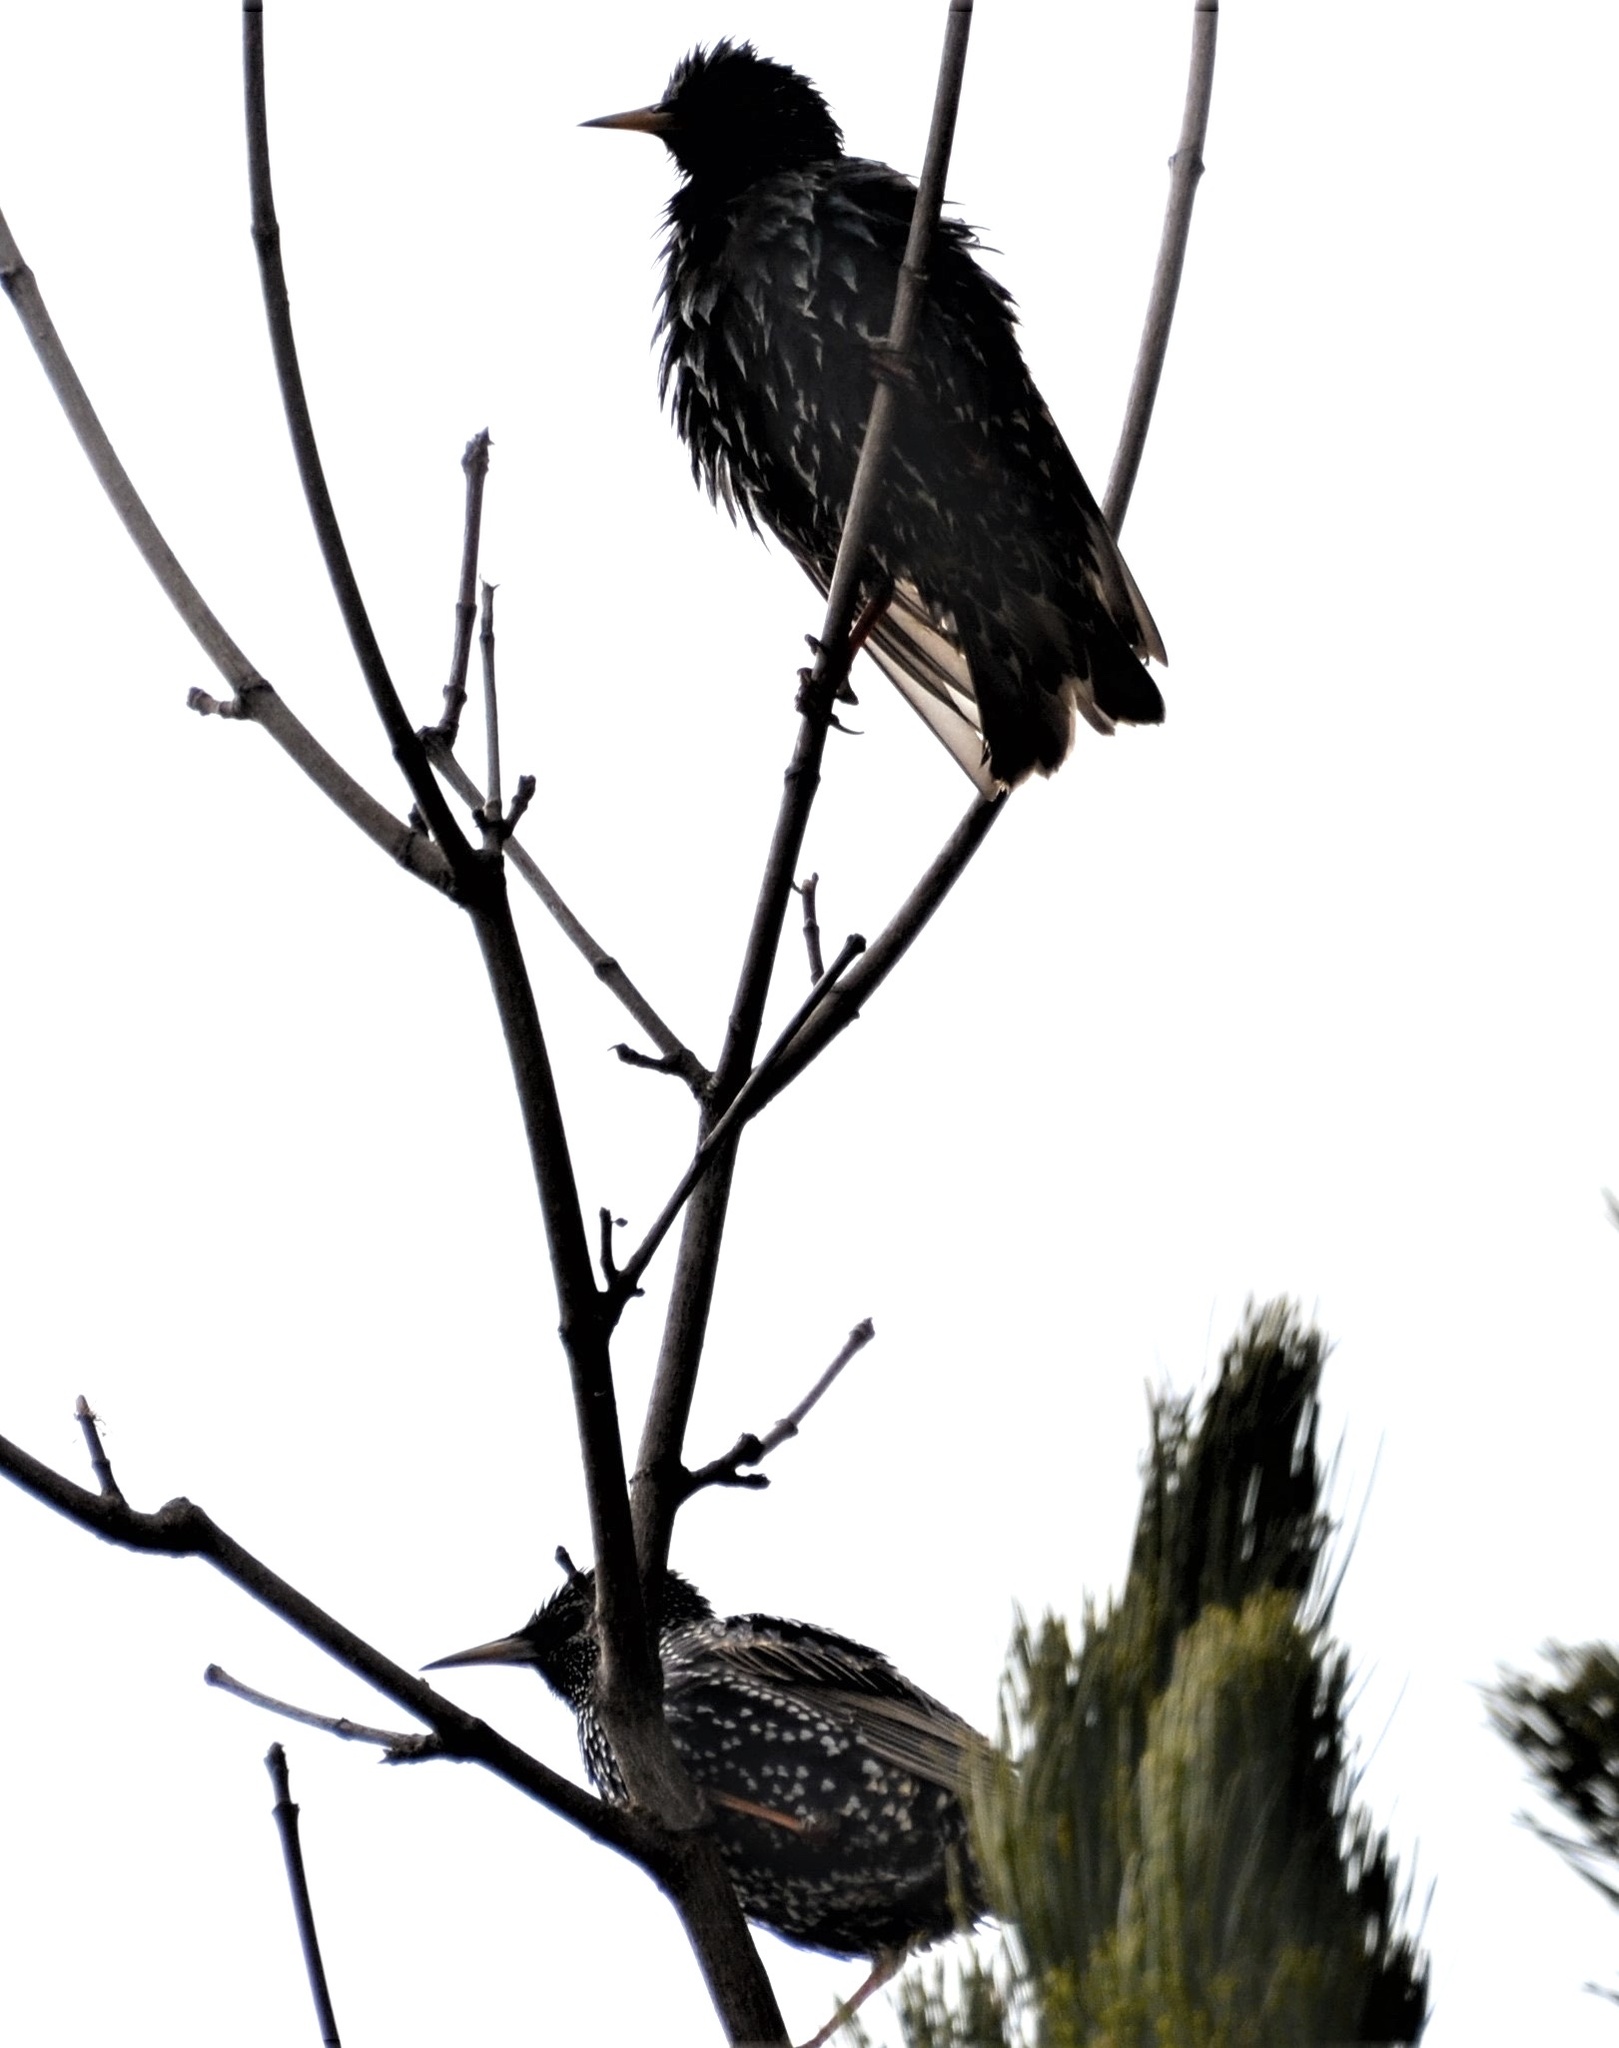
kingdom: Animalia
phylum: Chordata
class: Aves
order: Passeriformes
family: Sturnidae
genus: Sturnus
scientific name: Sturnus vulgaris
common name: Common starling
